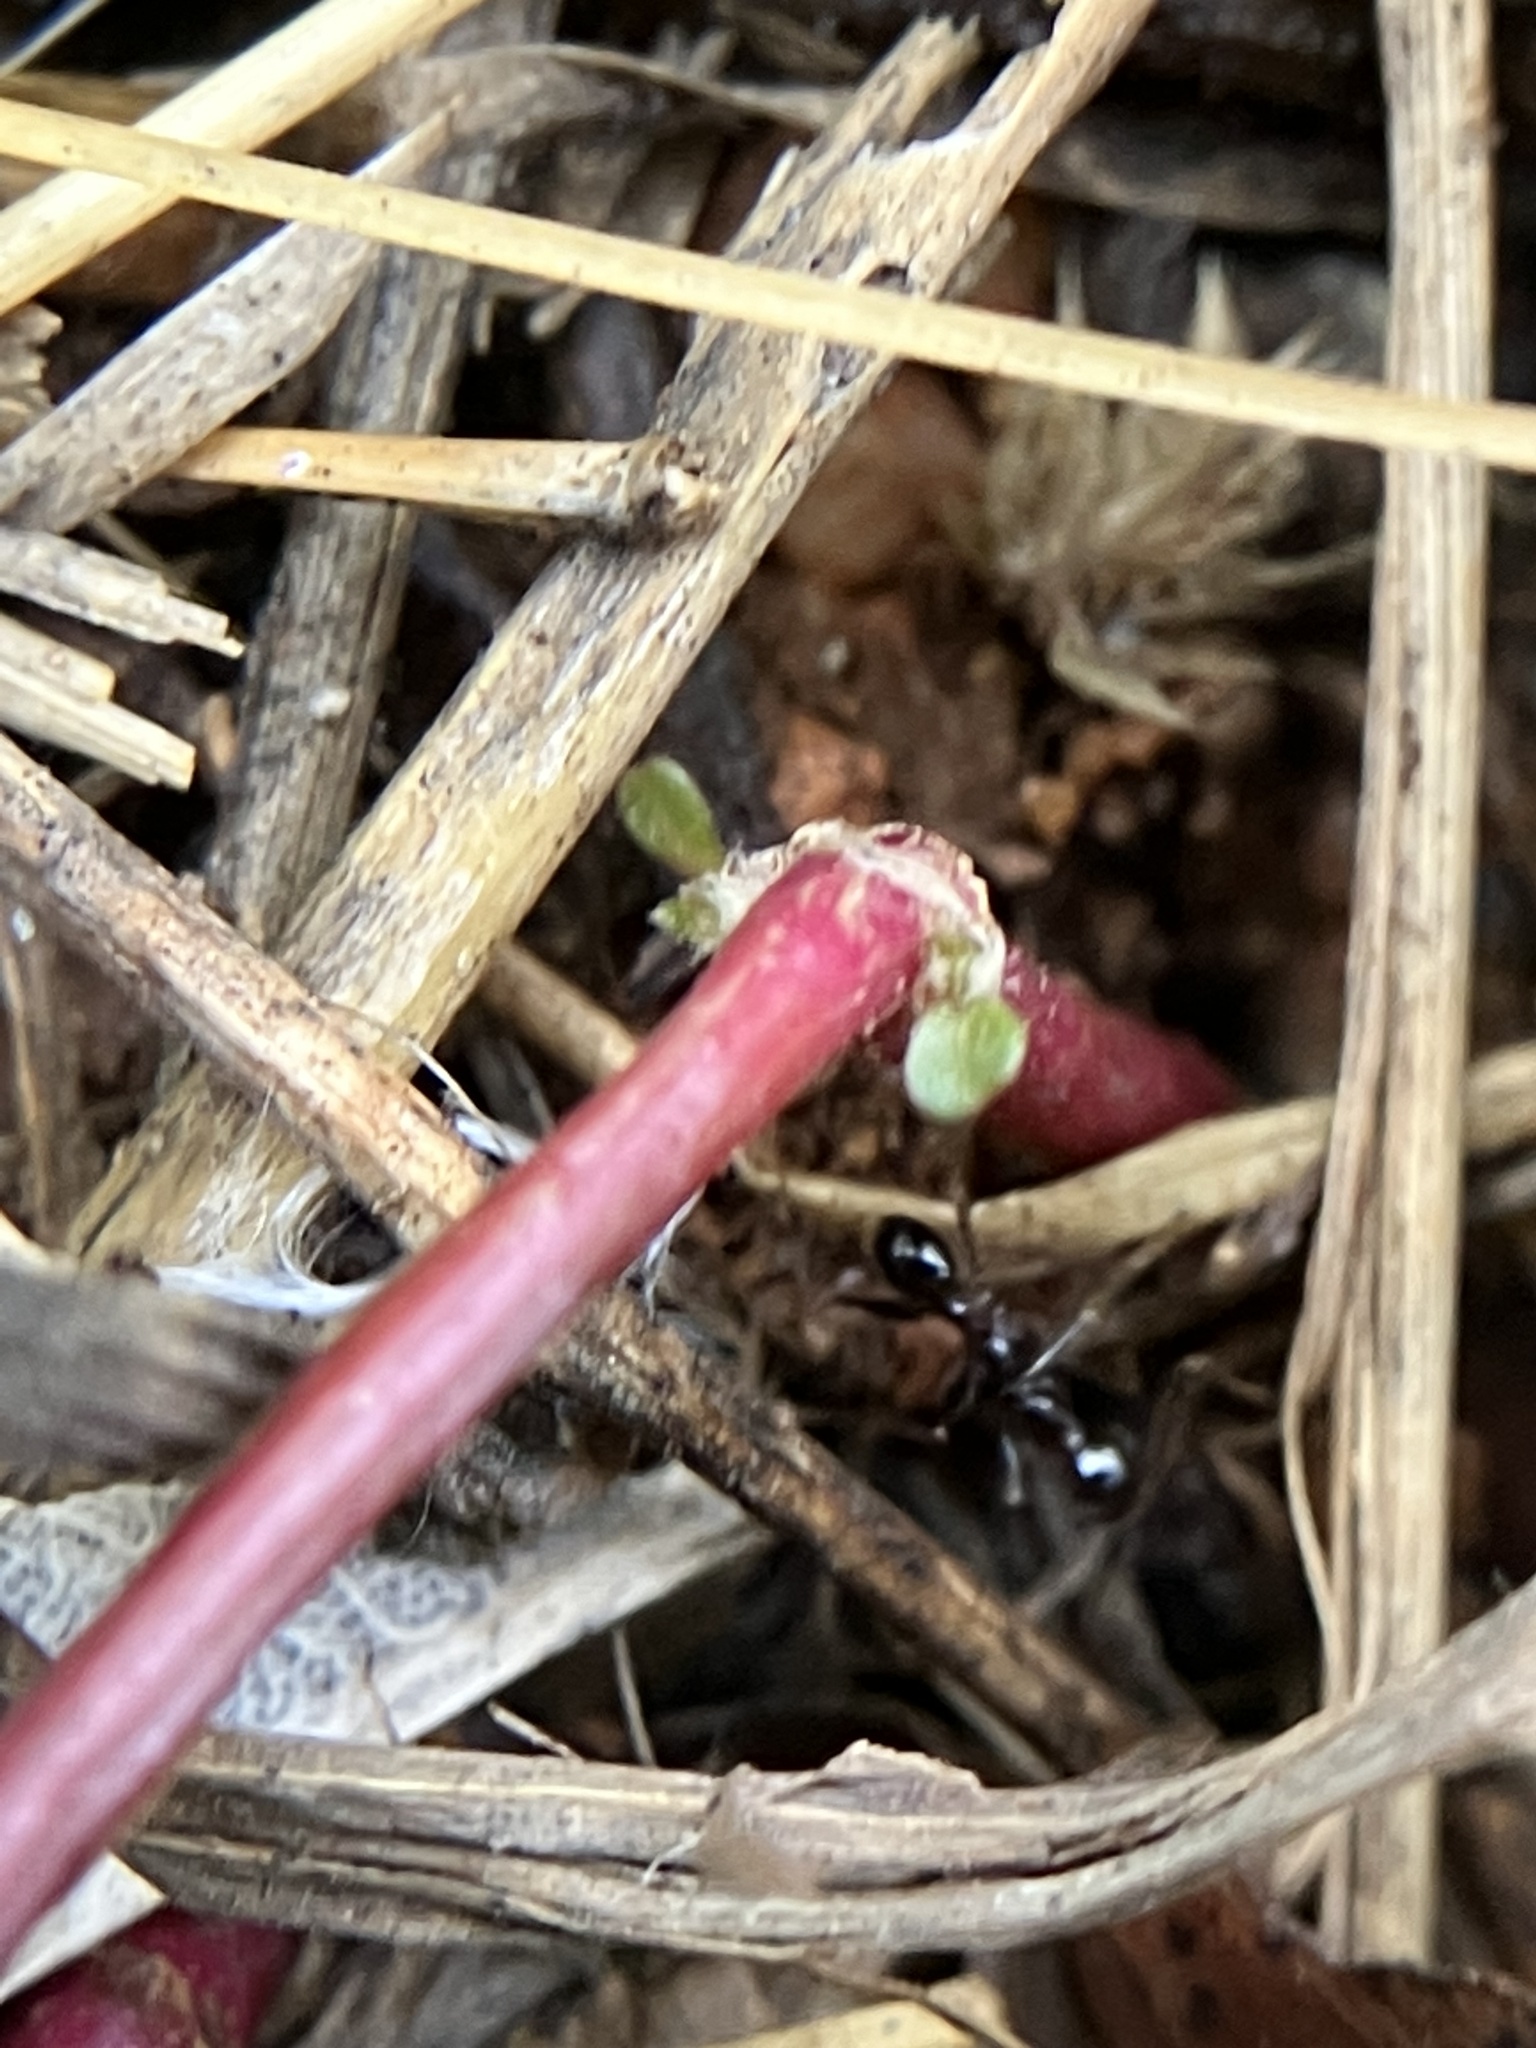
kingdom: Animalia
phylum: Arthropoda
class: Insecta
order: Hymenoptera
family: Formicidae
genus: Pheidole
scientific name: Pheidole latinoda
